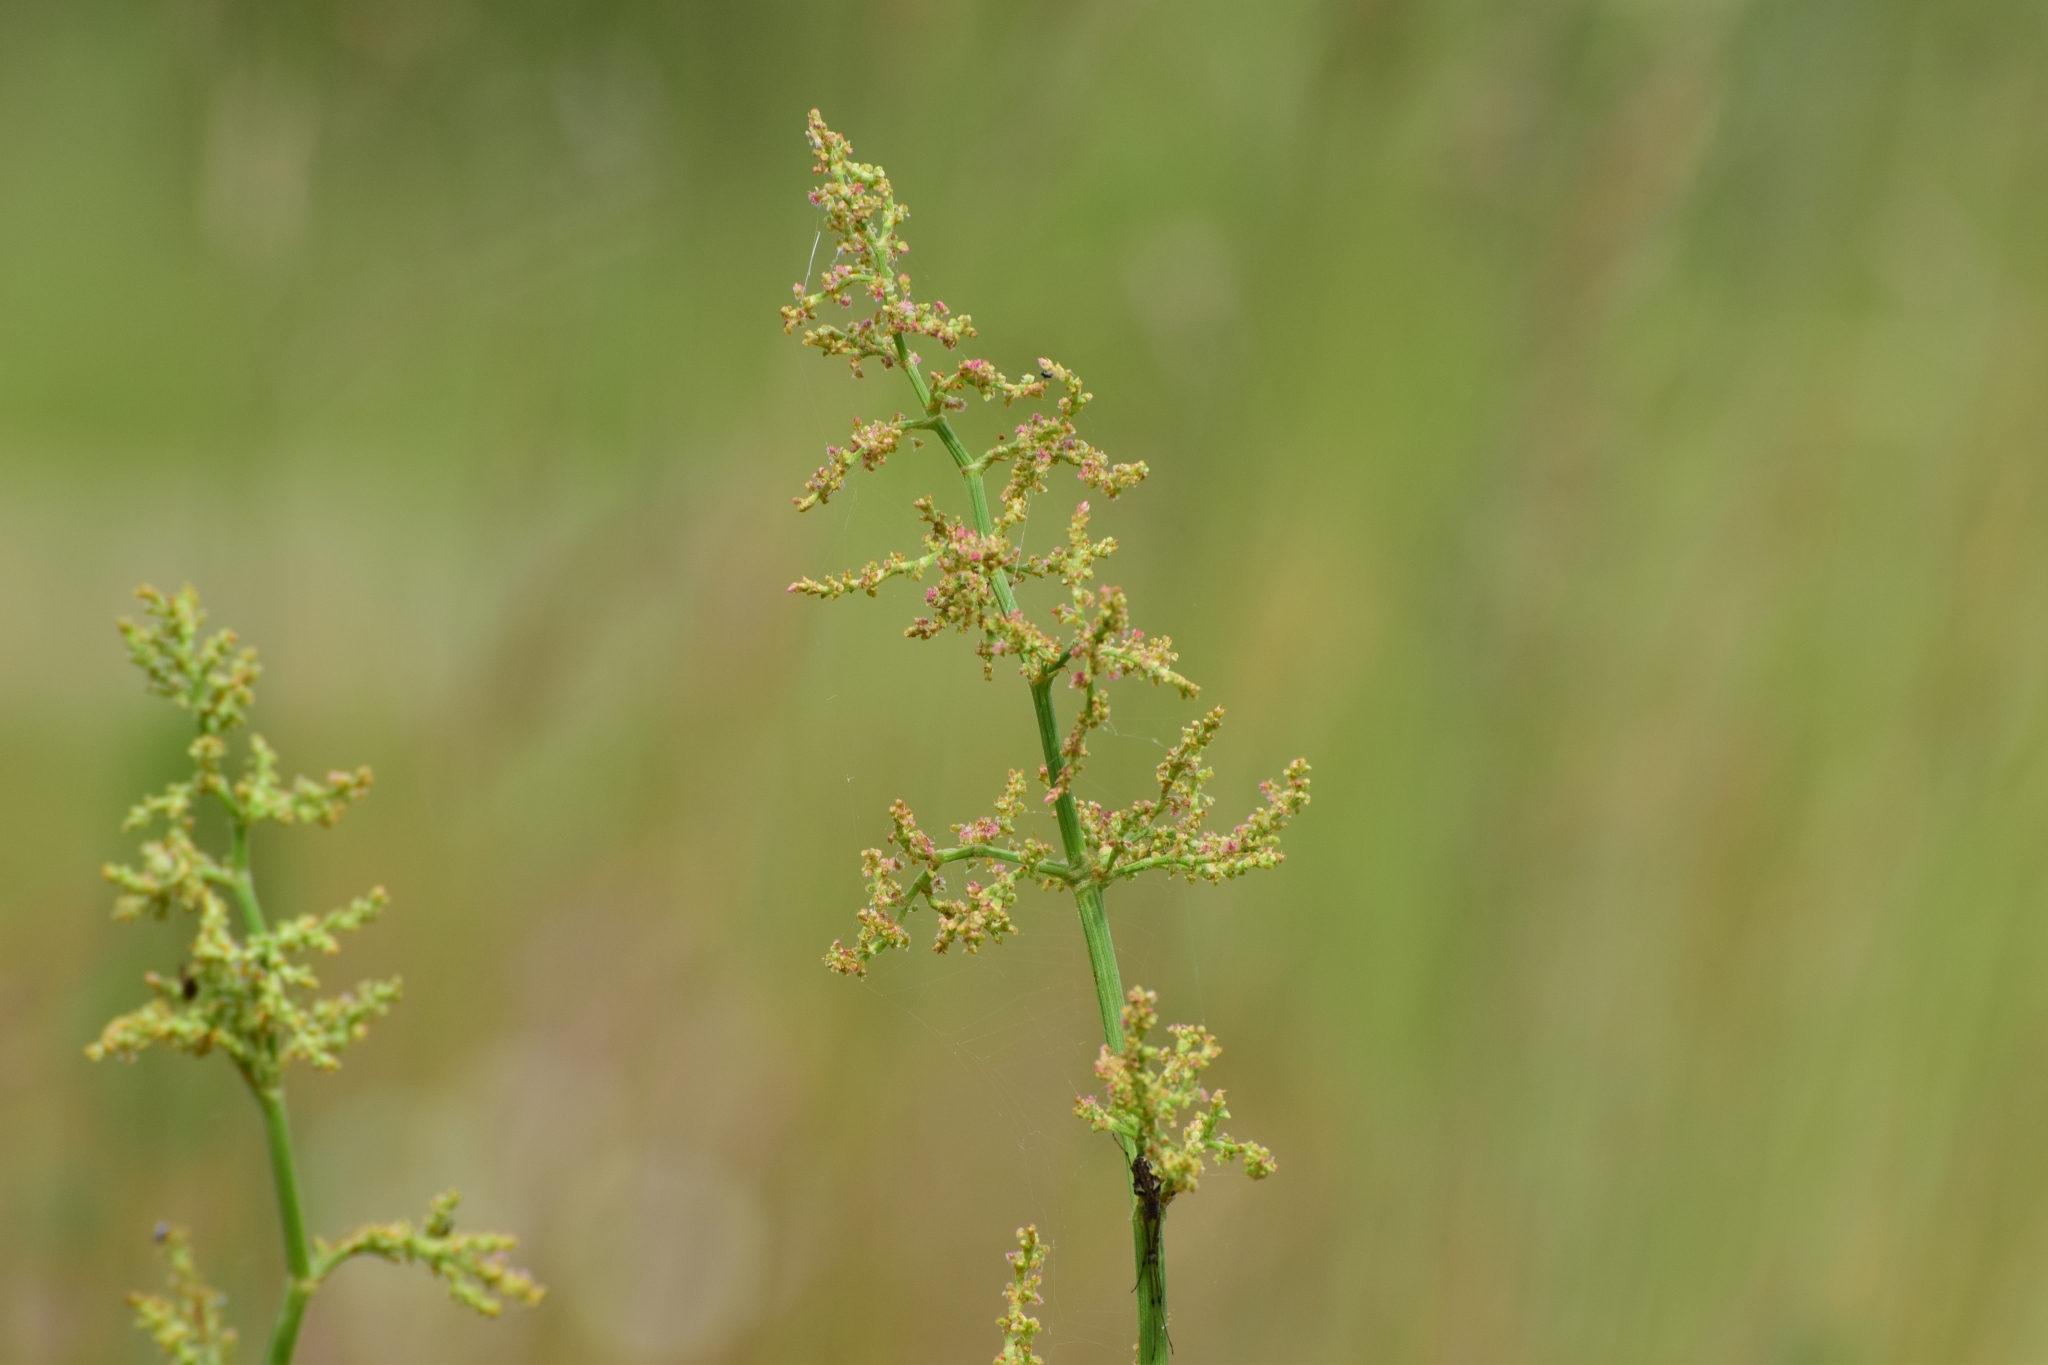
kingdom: Plantae
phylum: Tracheophyta
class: Magnoliopsida
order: Caryophyllales
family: Polygonaceae
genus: Rumex
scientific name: Rumex thyrsiflorus
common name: Garden sorrel
